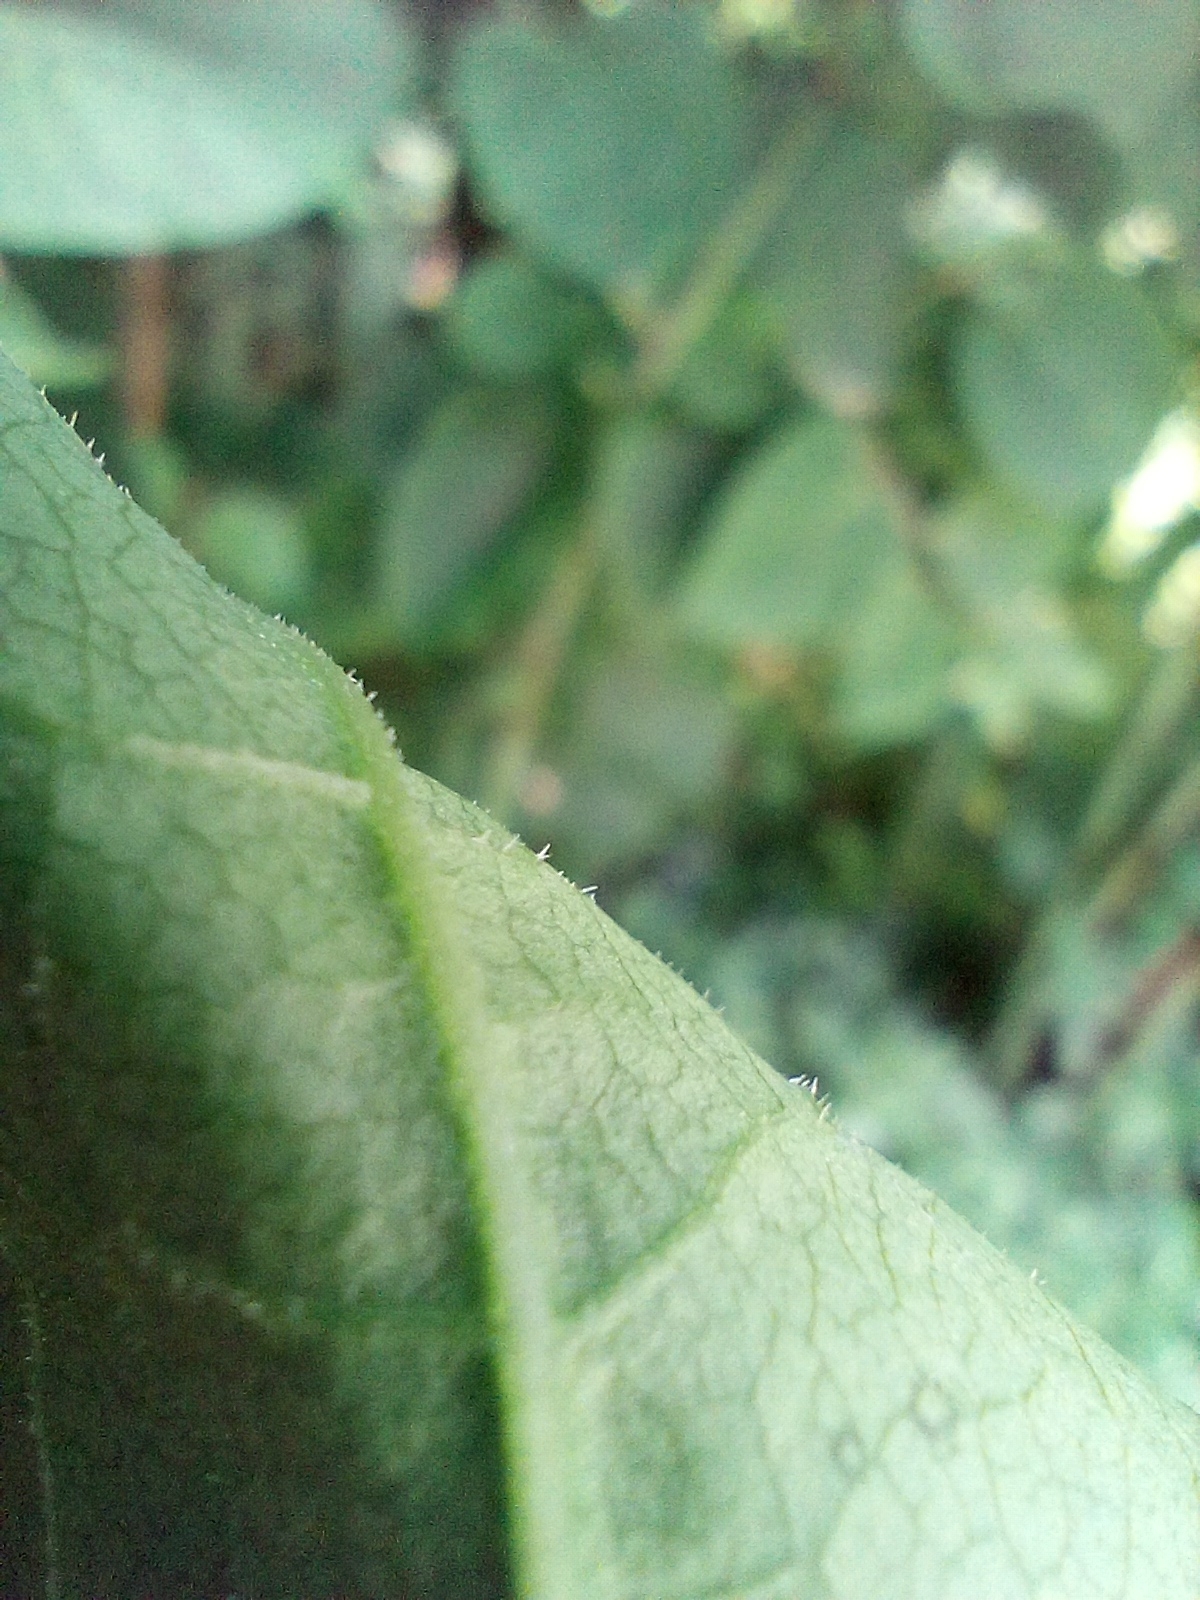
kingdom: Plantae
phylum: Tracheophyta
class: Magnoliopsida
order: Caryophyllales
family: Polygonaceae
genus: Reynoutria
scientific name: Reynoutria bohemica
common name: Bohemian knotweed
